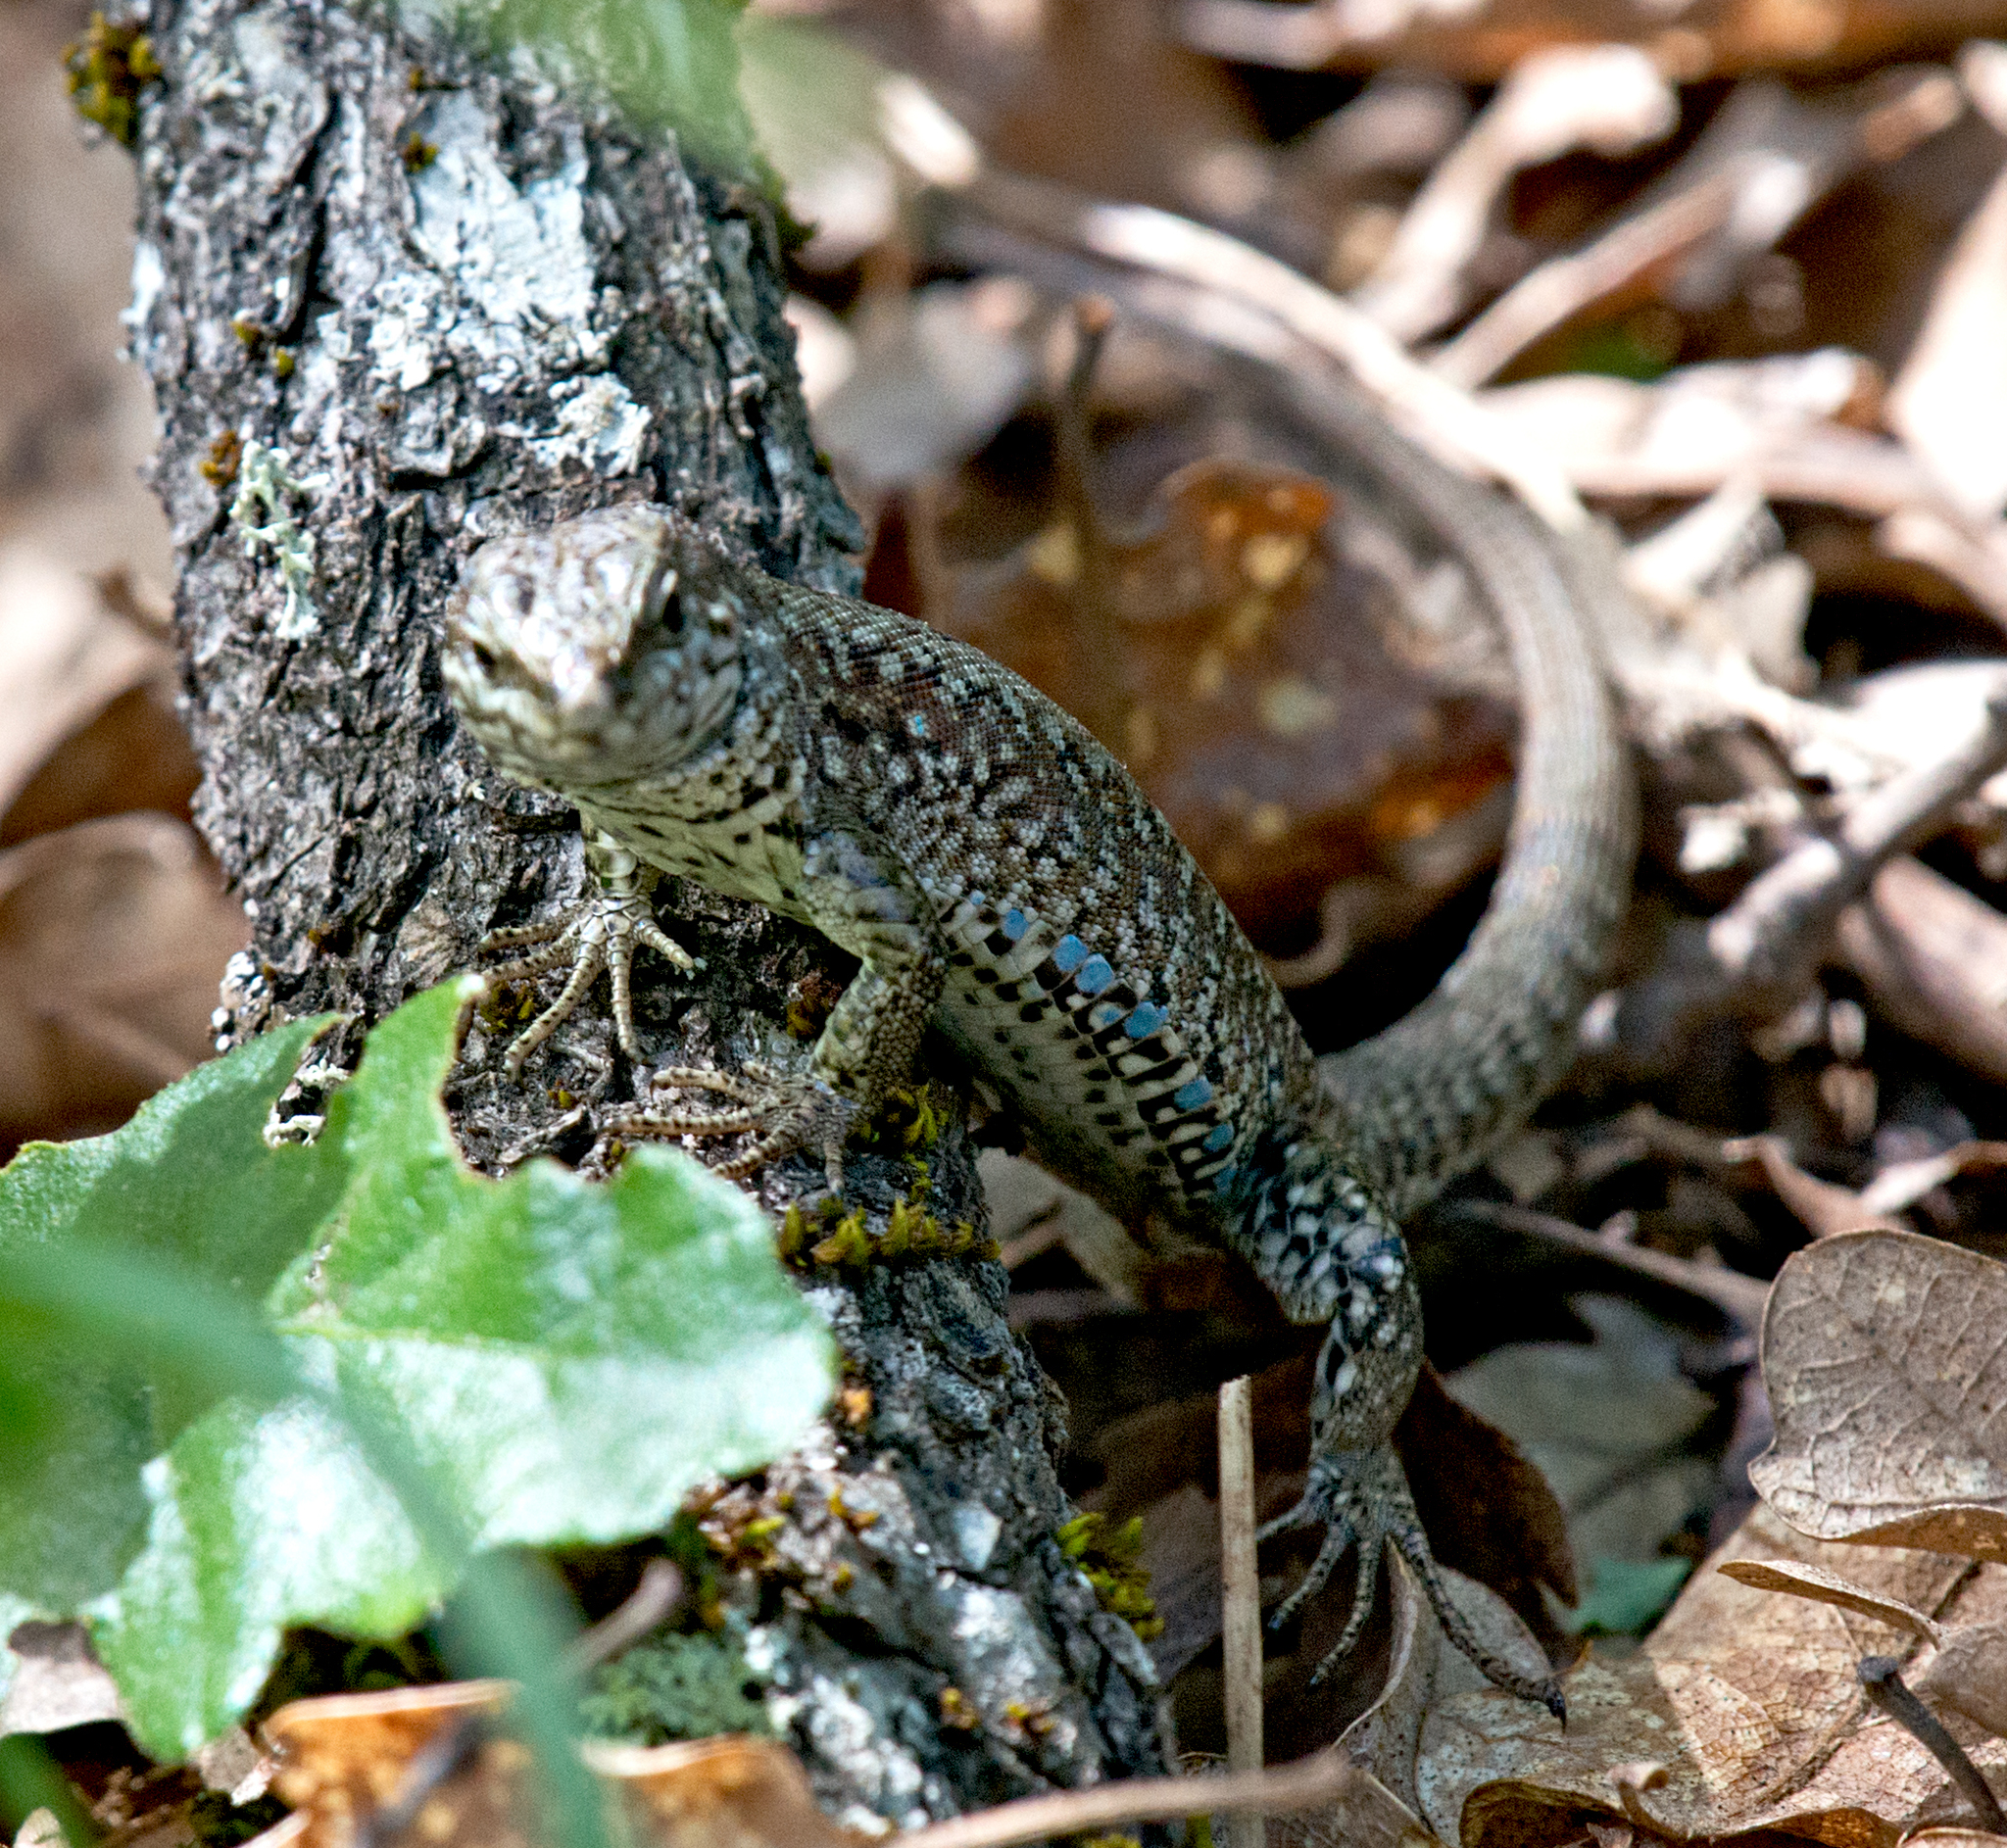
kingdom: Animalia
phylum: Chordata
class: Squamata
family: Lacertidae
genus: Podarcis
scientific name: Podarcis muralis
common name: Common wall lizard
